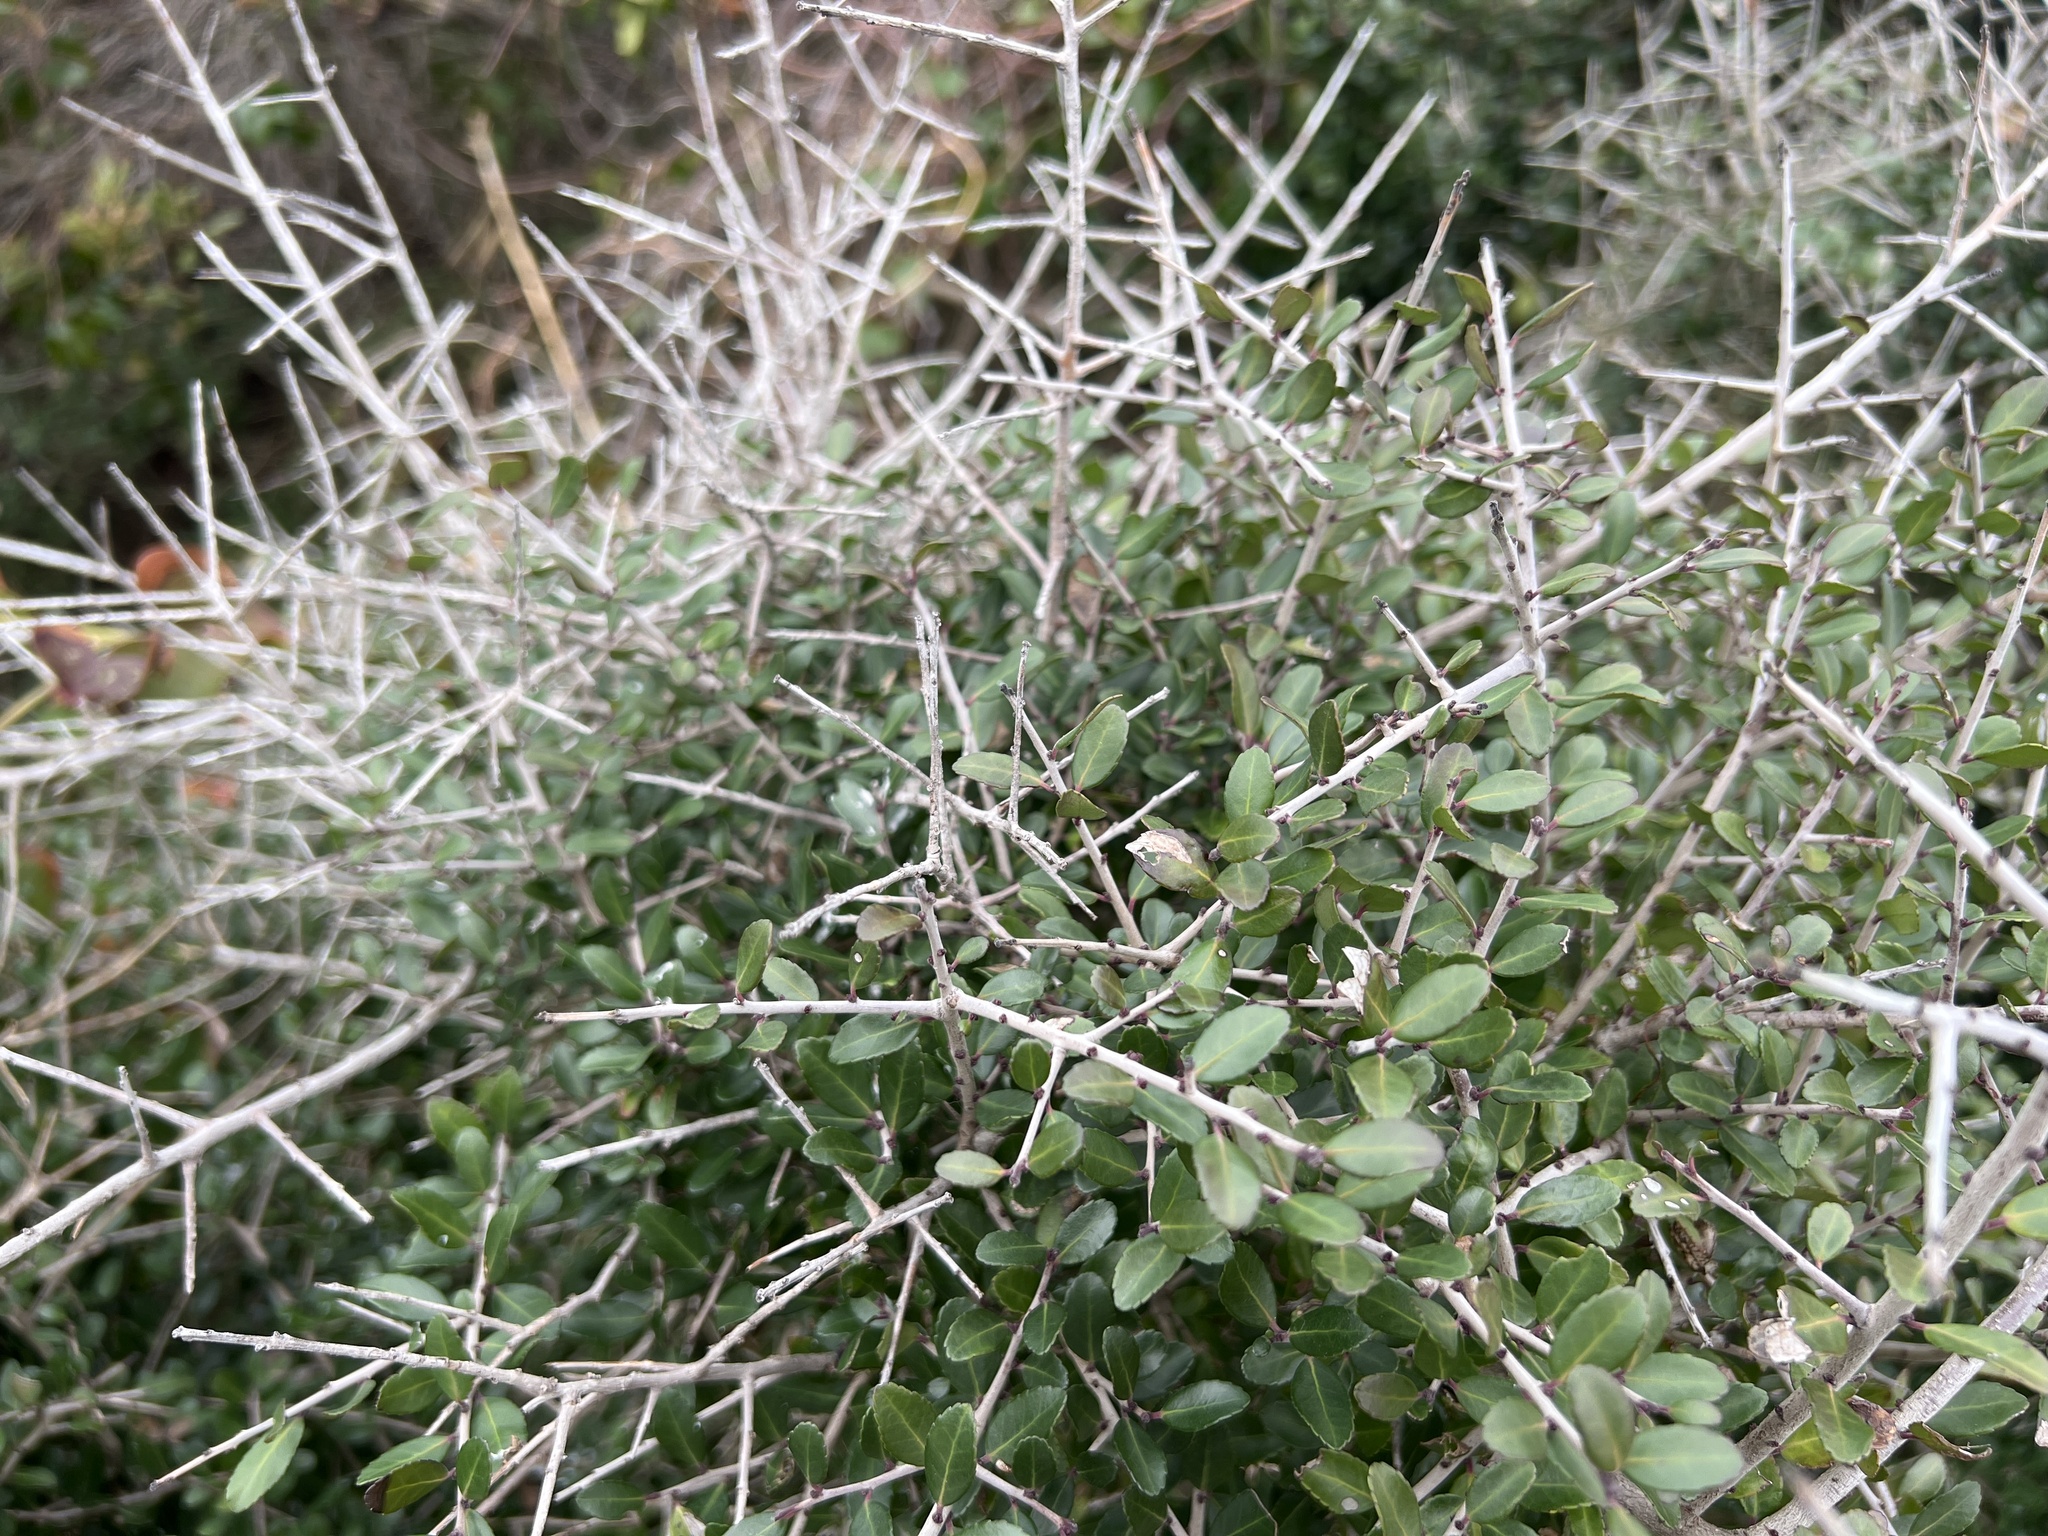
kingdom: Plantae
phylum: Tracheophyta
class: Magnoliopsida
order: Aquifoliales
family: Aquifoliaceae
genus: Ilex
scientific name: Ilex vomitoria
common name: Yaupon holly
